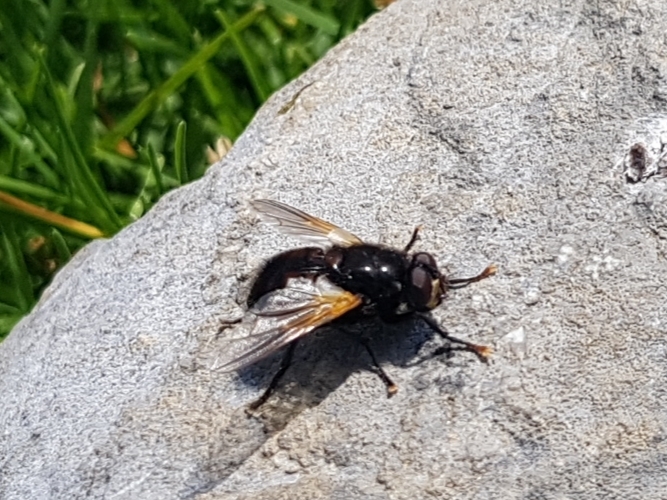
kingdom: Animalia
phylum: Arthropoda
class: Insecta
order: Diptera
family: Muscidae
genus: Mesembrina
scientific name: Mesembrina meridiana
